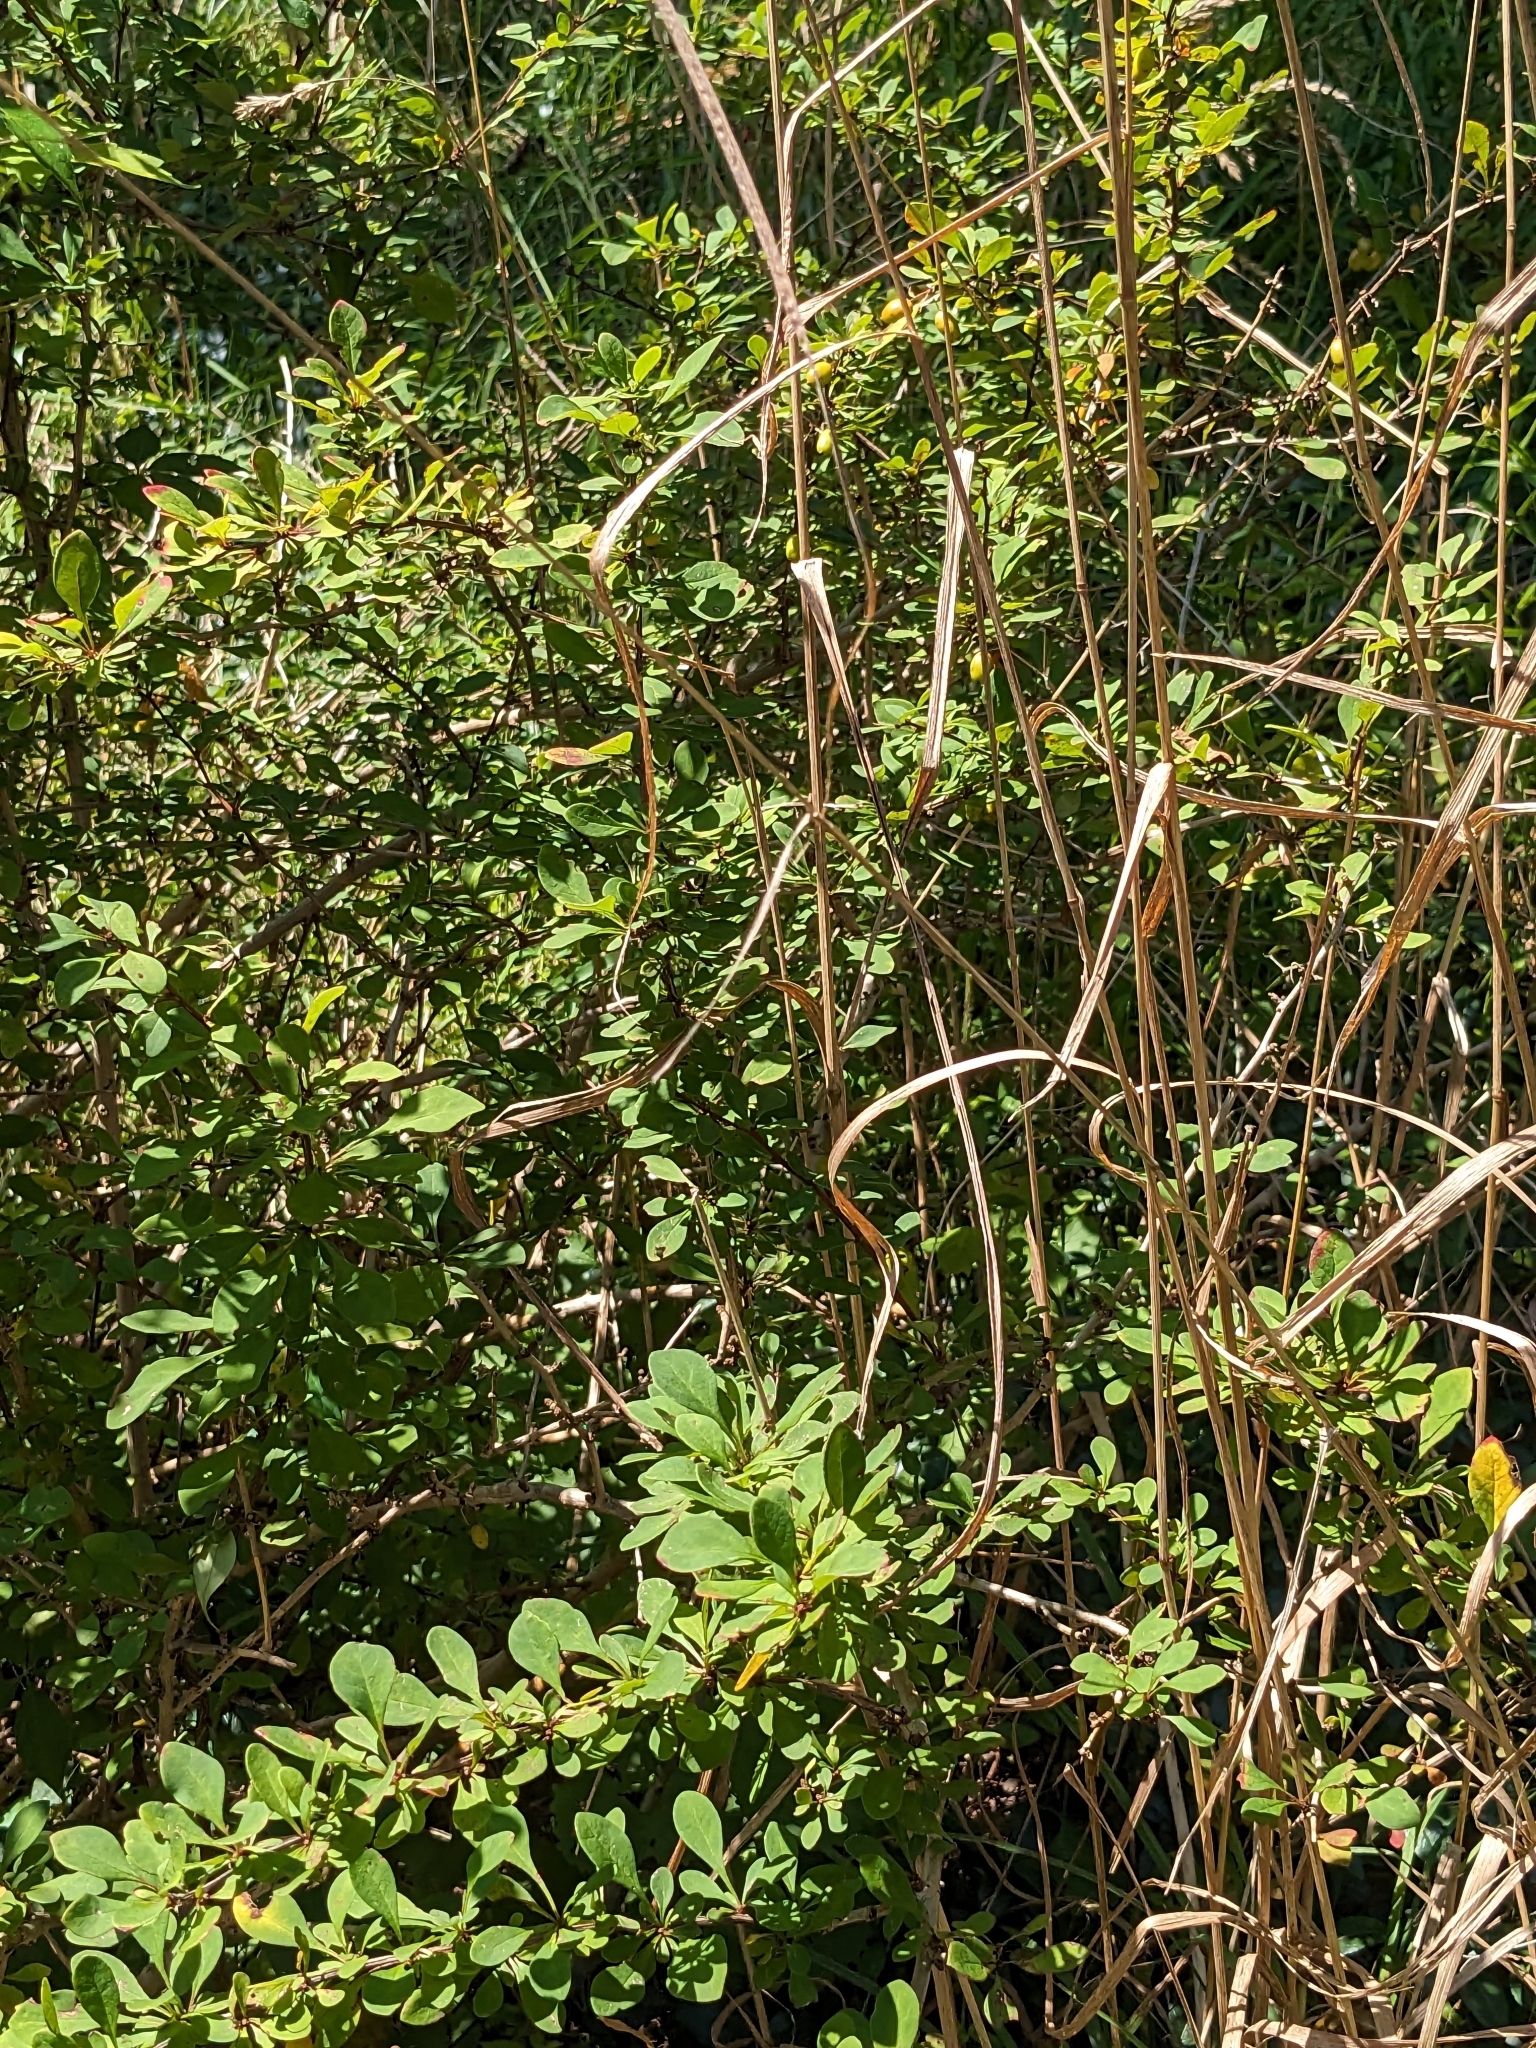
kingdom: Plantae
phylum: Tracheophyta
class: Magnoliopsida
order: Ranunculales
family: Berberidaceae
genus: Berberis
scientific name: Berberis thunbergii
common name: Japanese barberry
